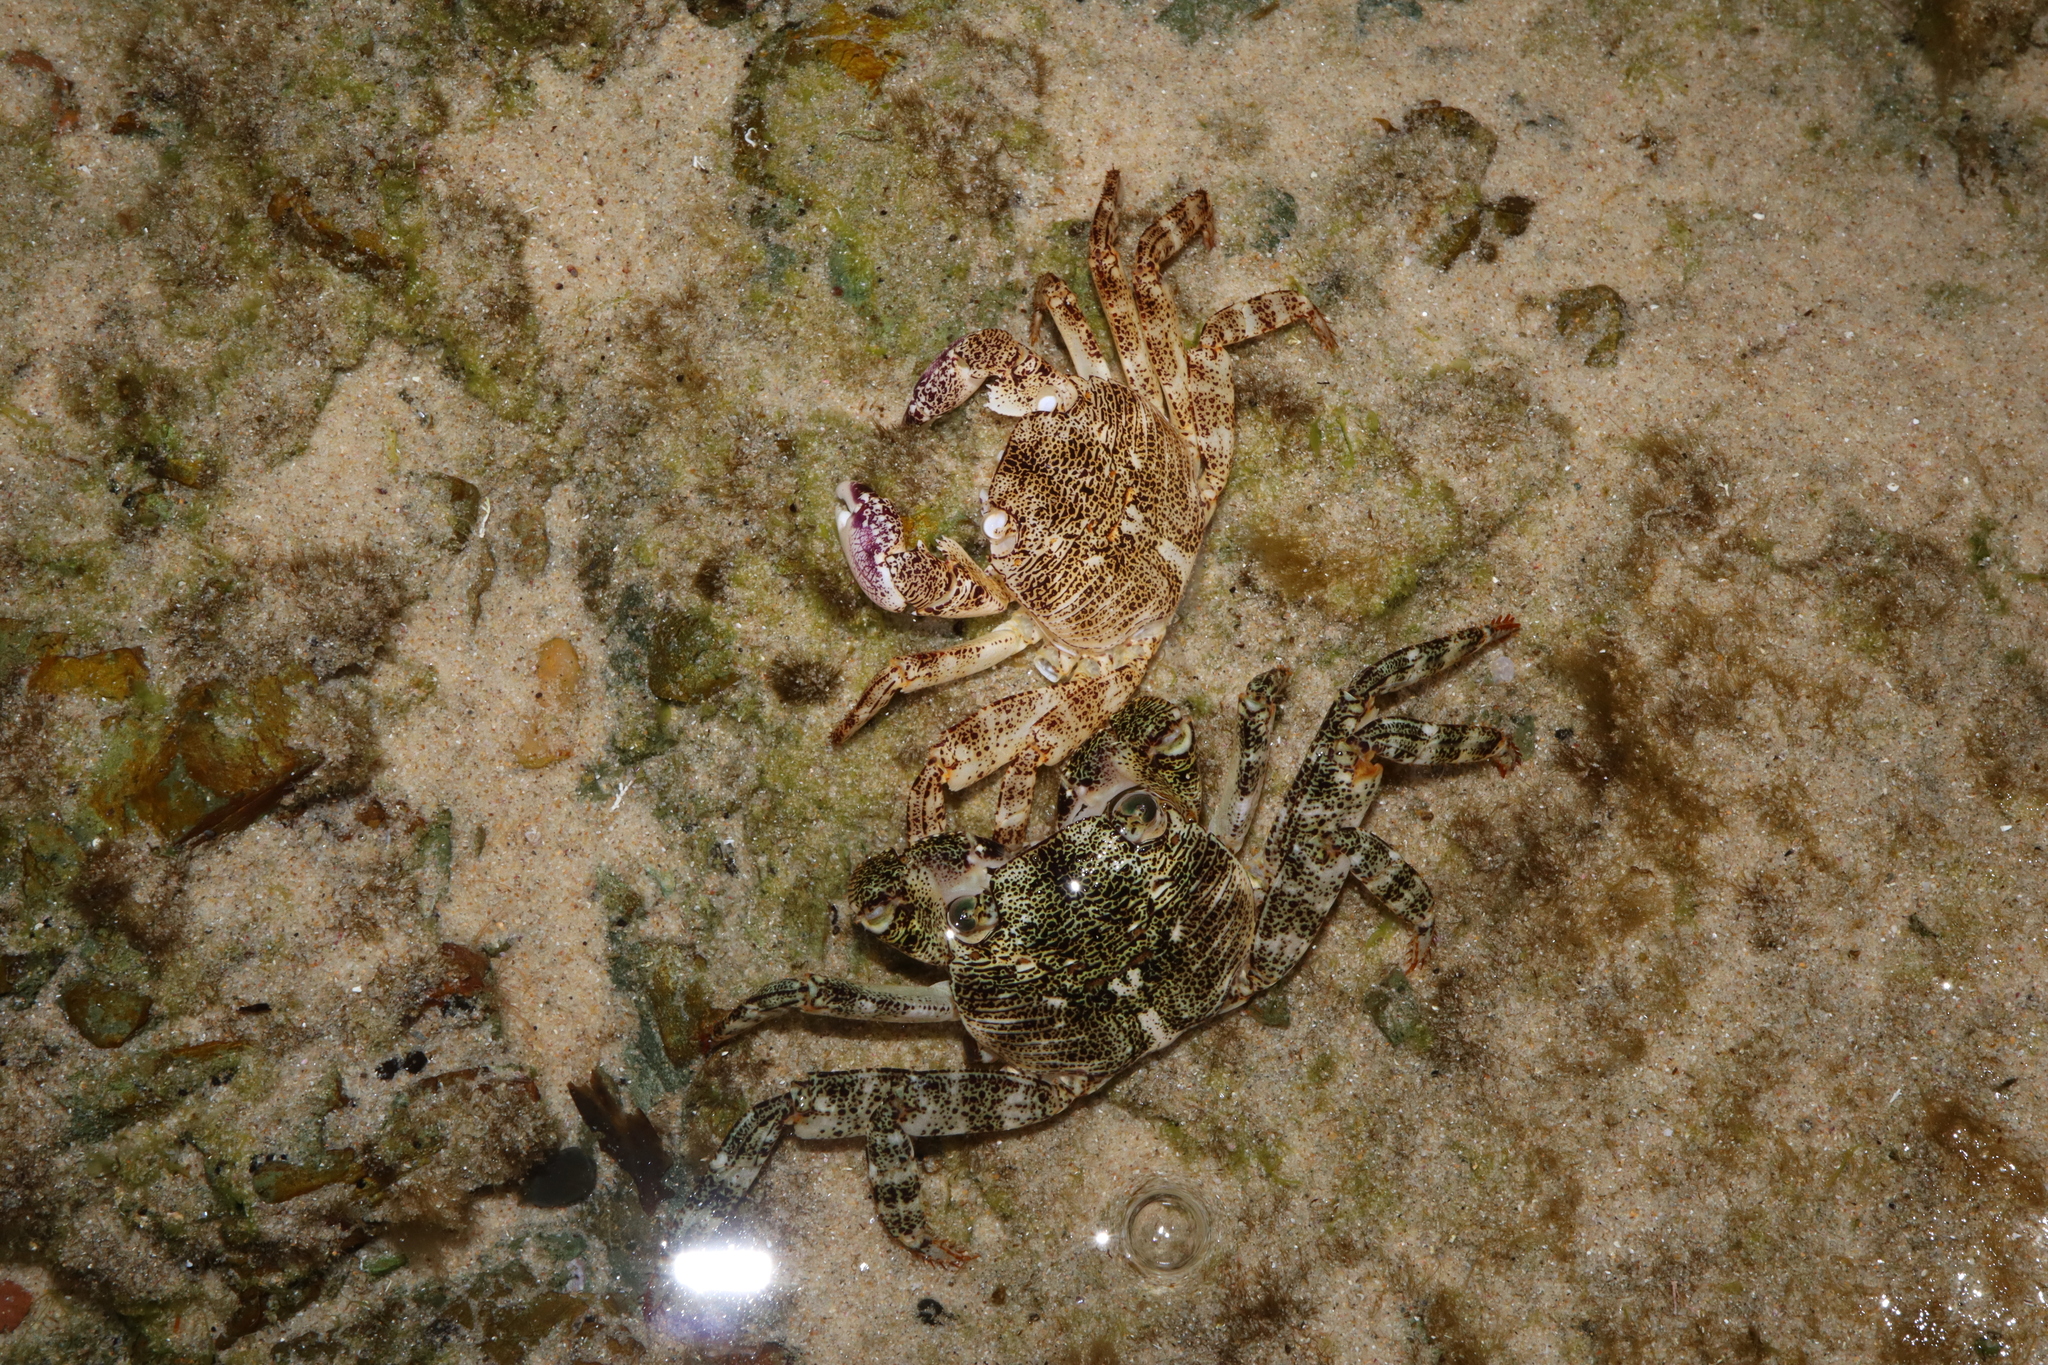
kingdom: Animalia
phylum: Arthropoda
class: Malacostraca
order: Decapoda
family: Grapsidae
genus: Leptograpsus
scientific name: Leptograpsus variegatus
